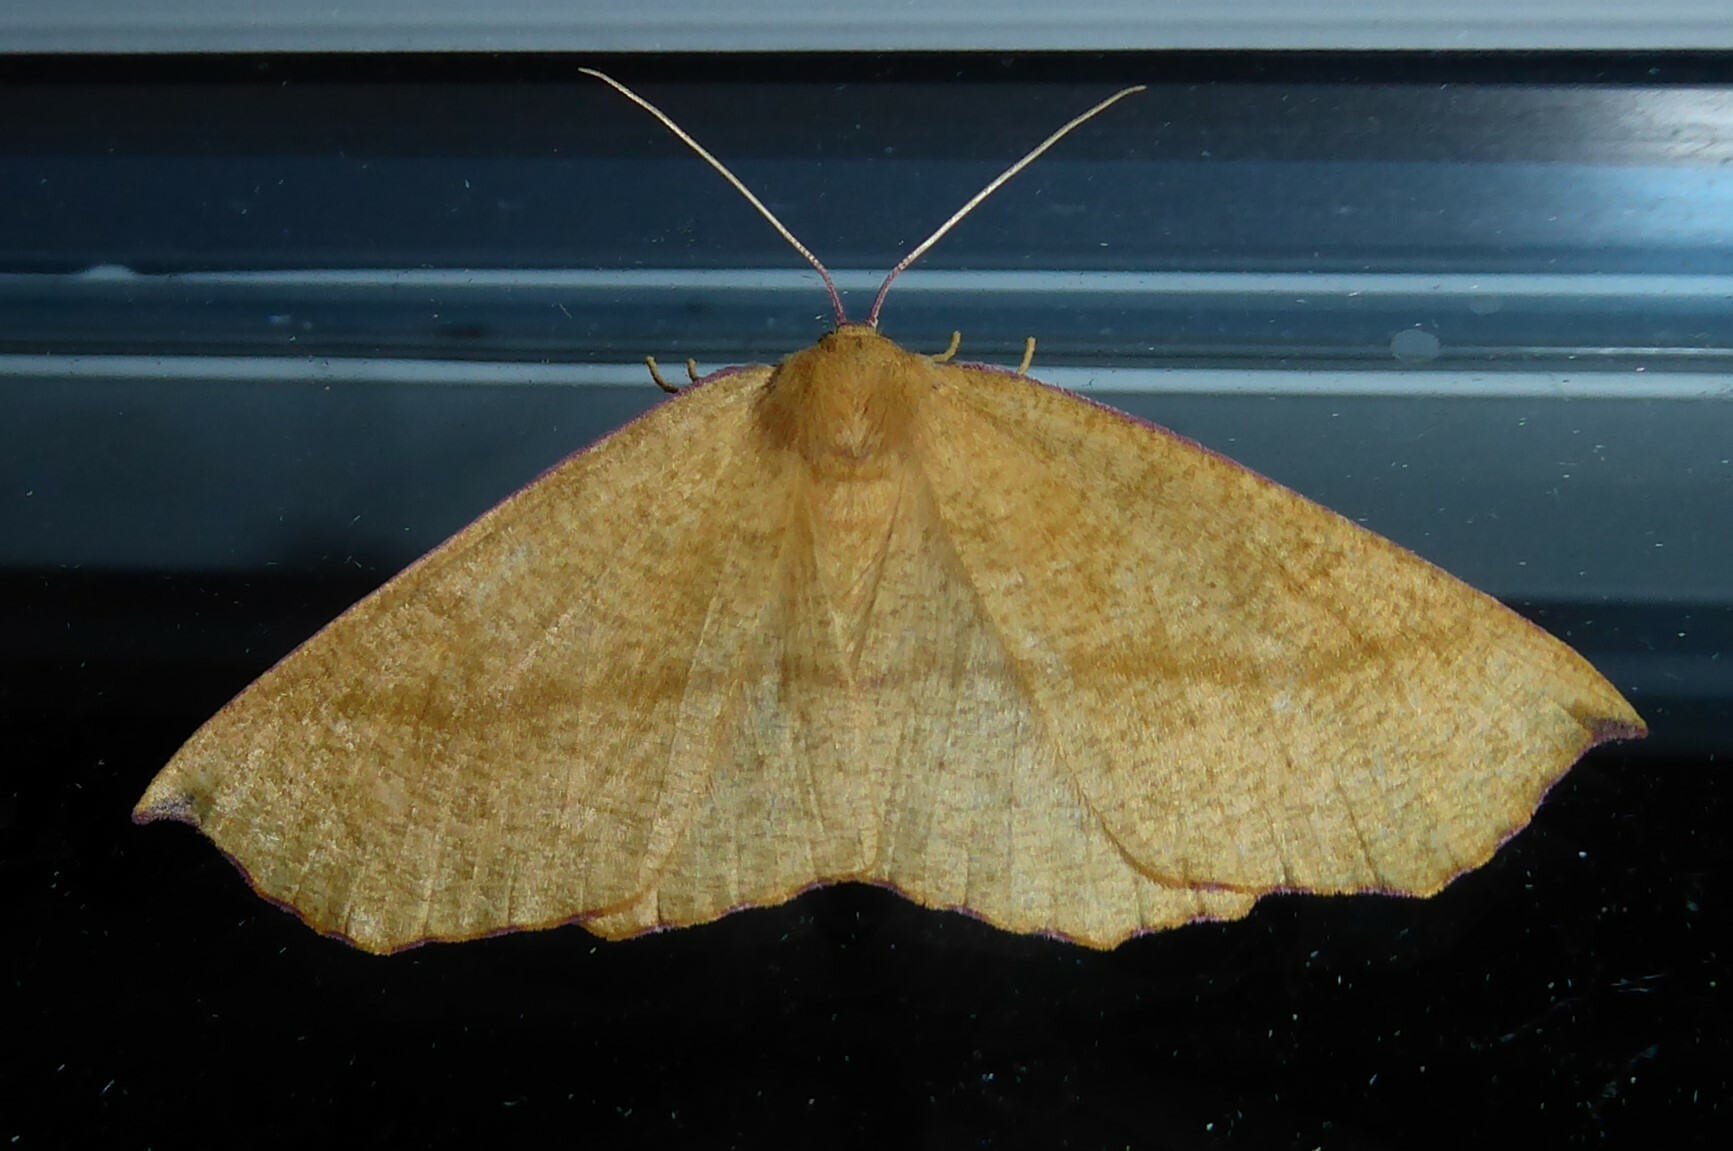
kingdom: Animalia
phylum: Arthropoda
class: Insecta
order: Lepidoptera
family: Geometridae
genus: Xyridacma
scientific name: Xyridacma alectoraria
